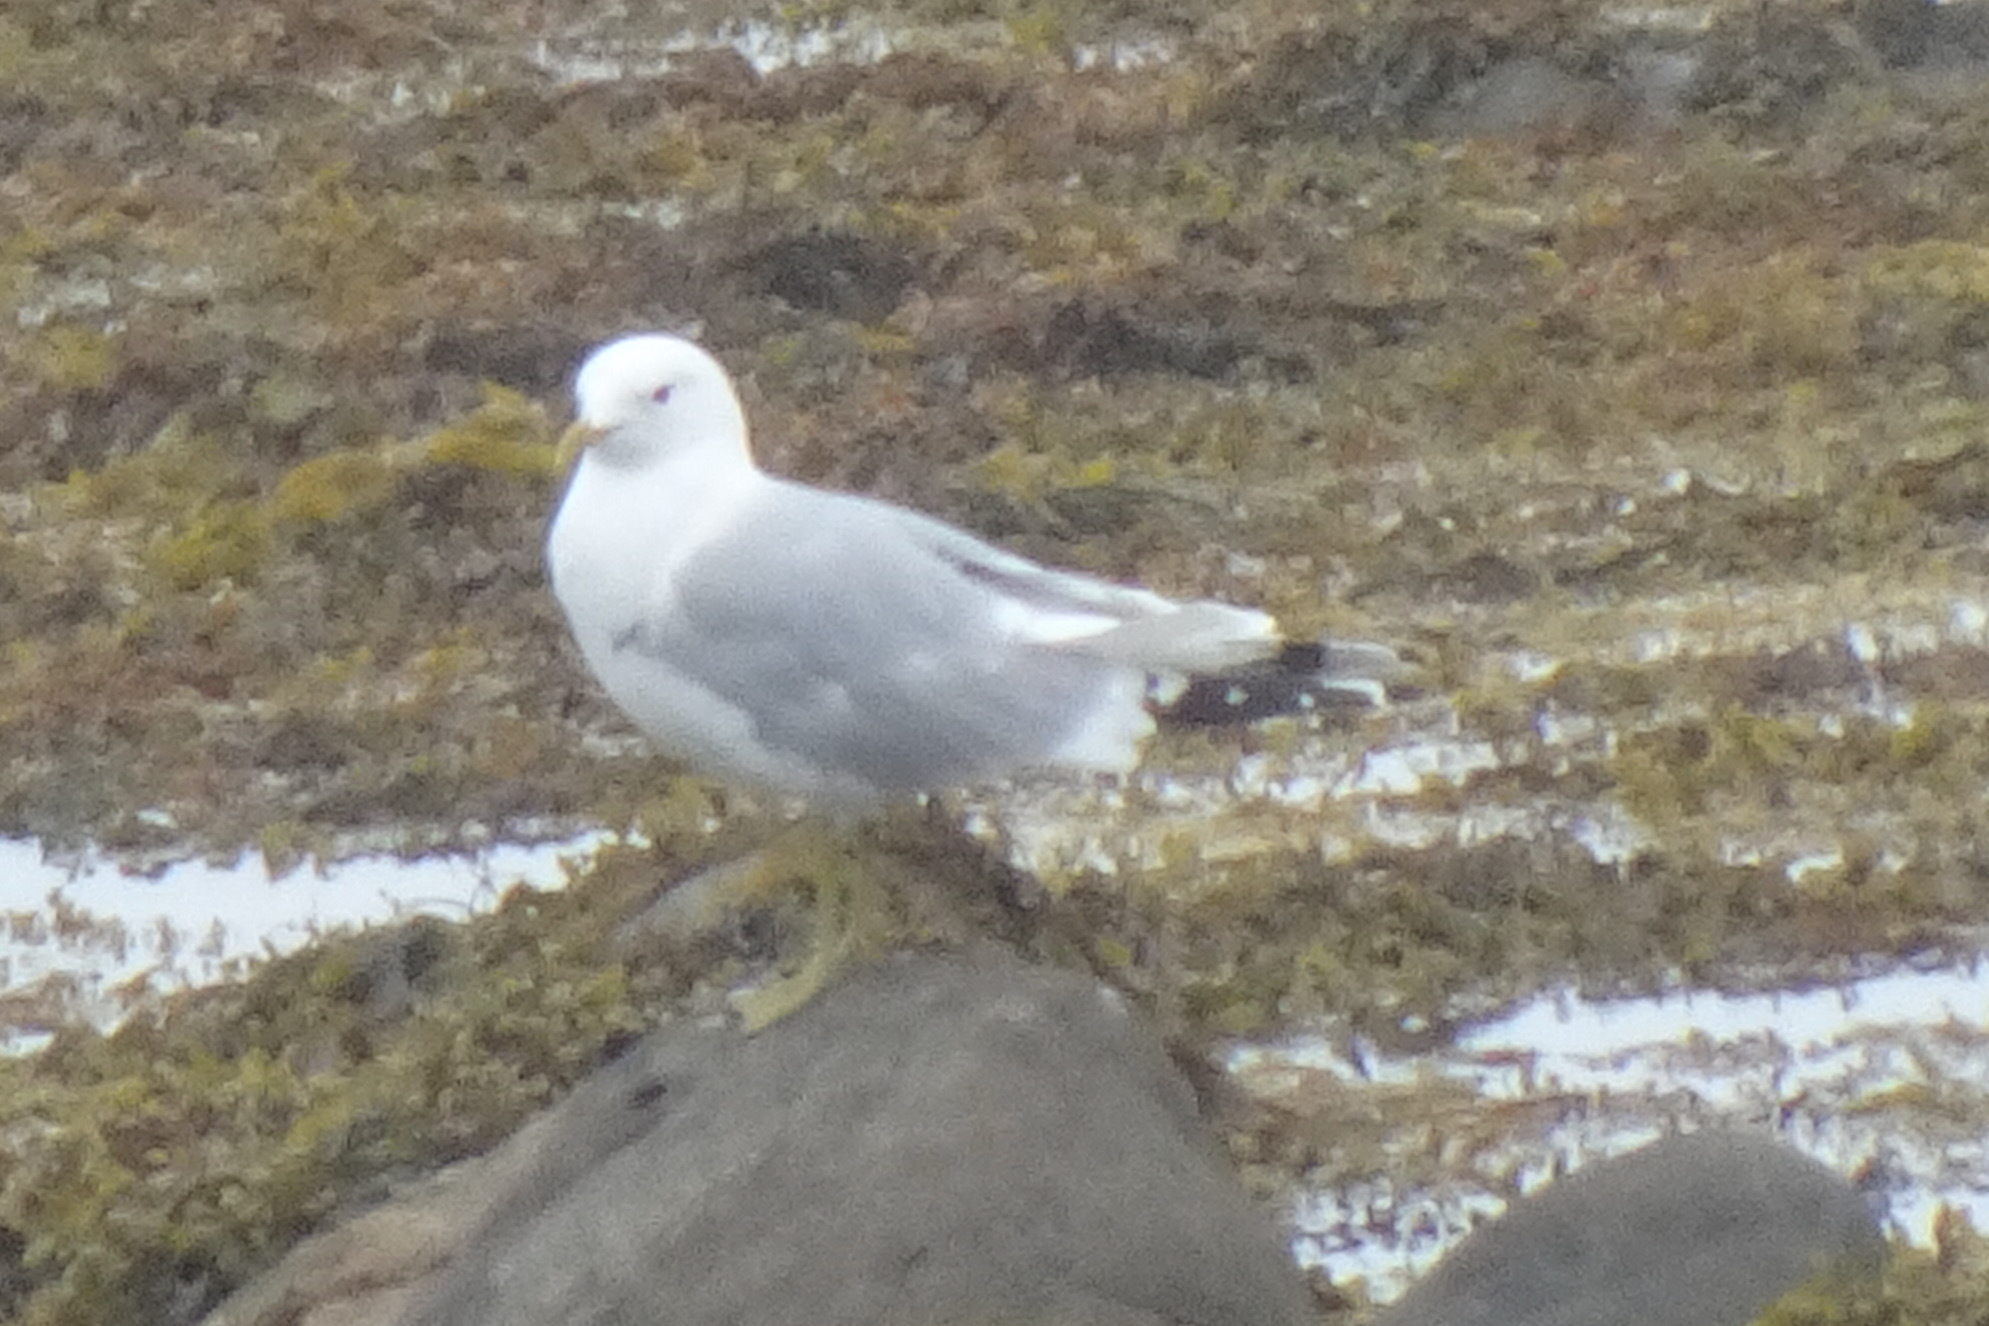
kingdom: Animalia
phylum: Chordata
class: Aves
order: Charadriiformes
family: Laridae
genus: Larus
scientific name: Larus canus
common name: Mew gull
